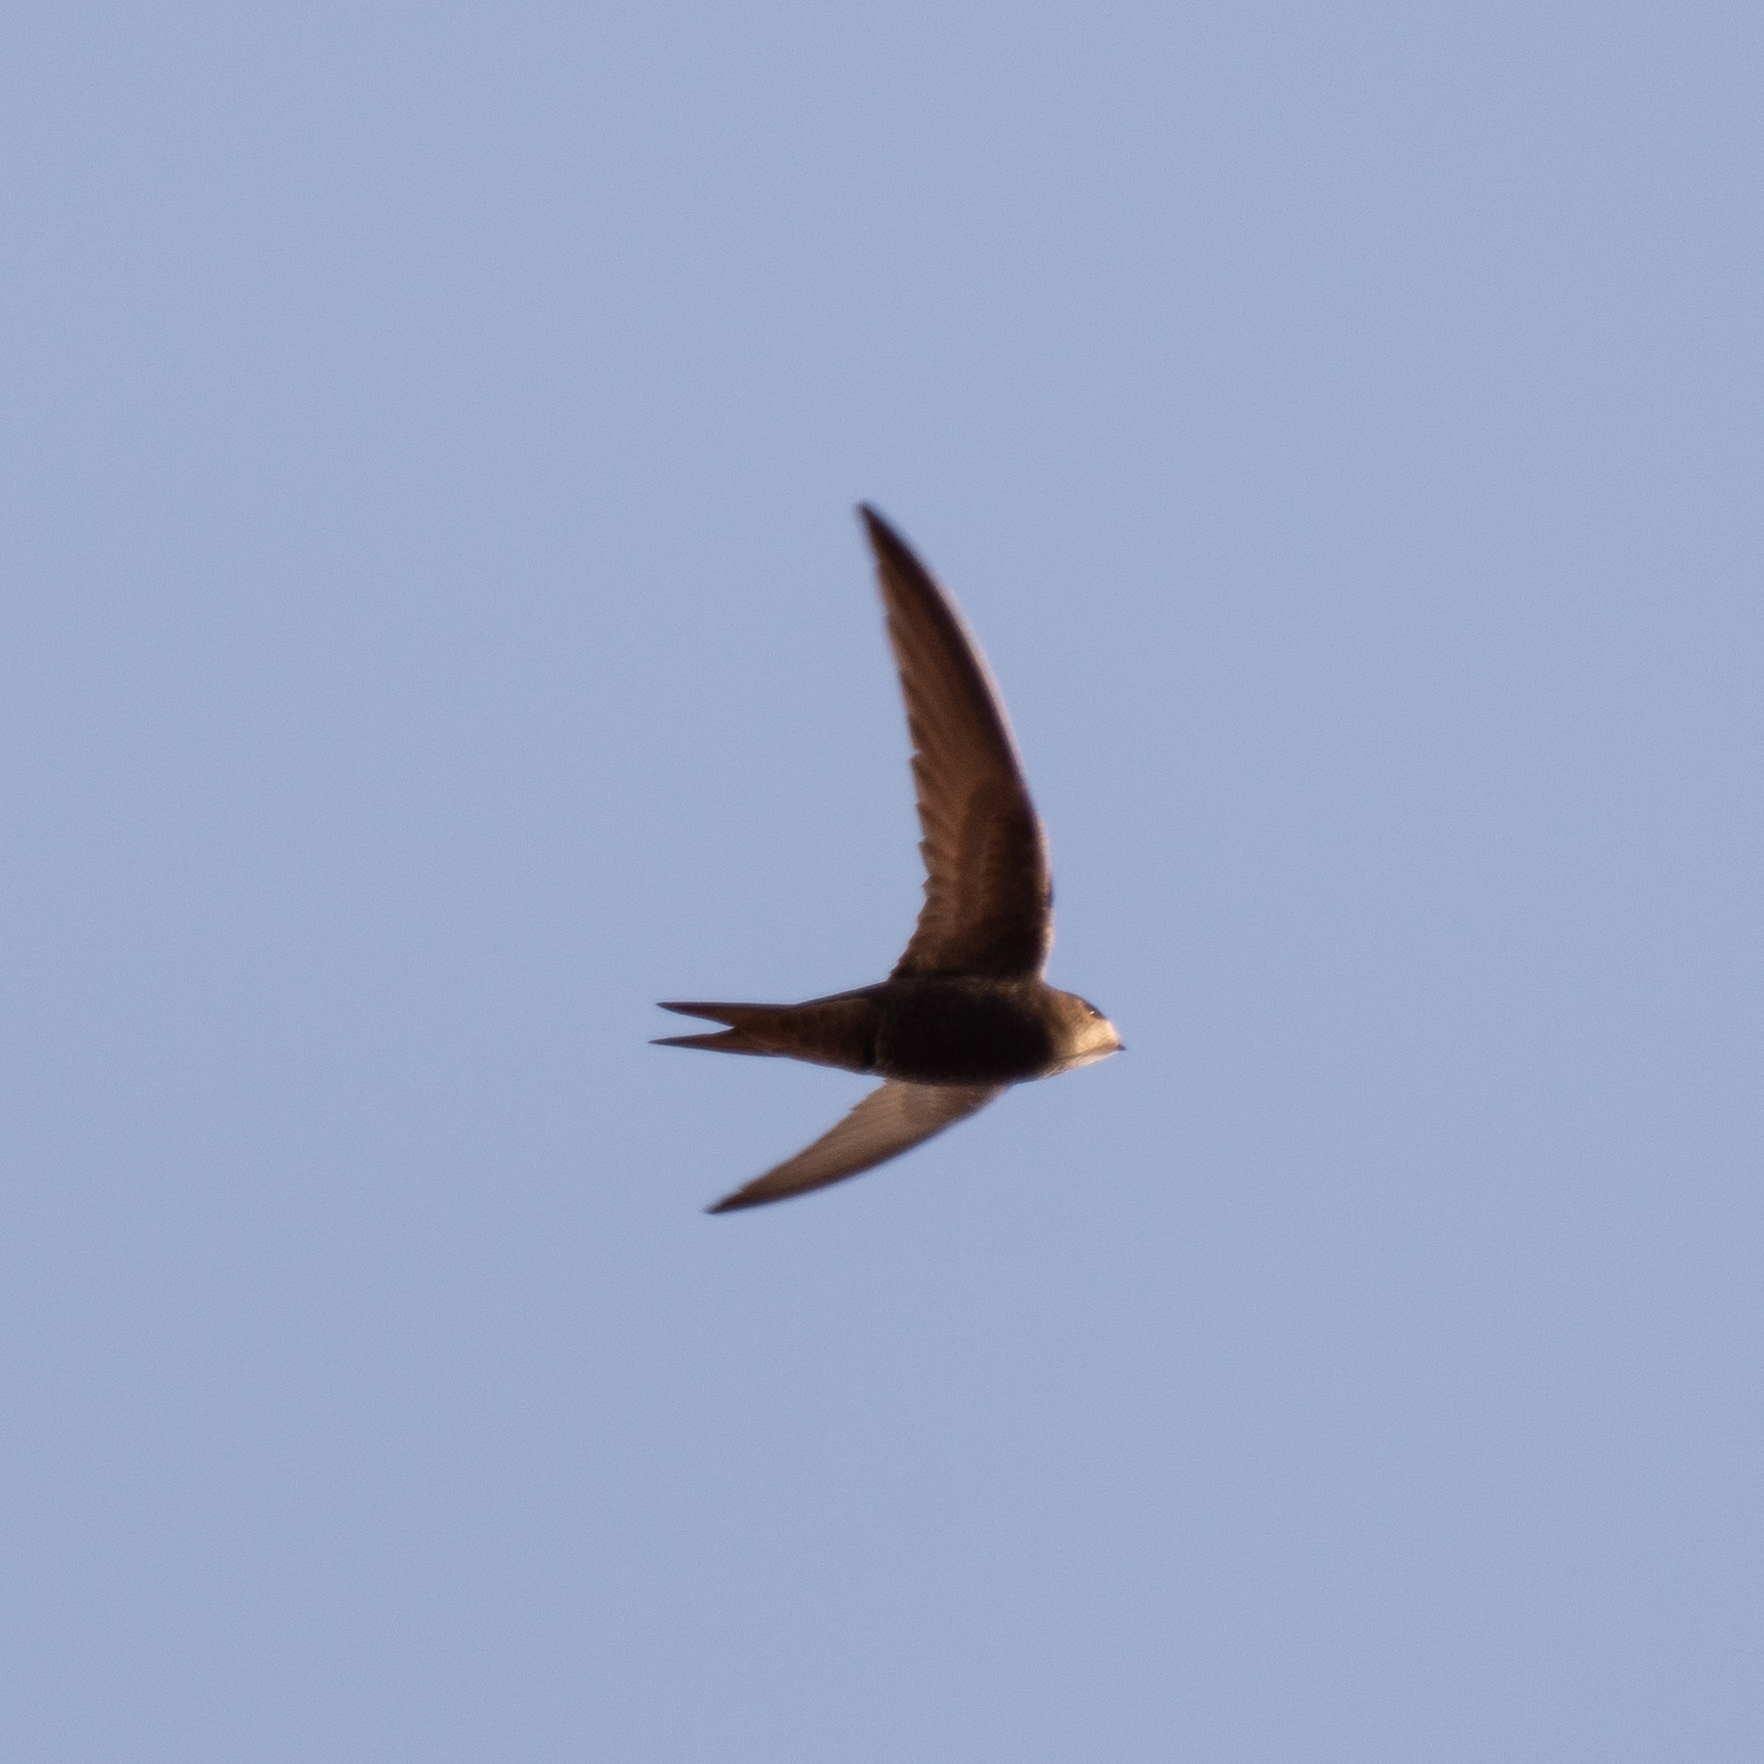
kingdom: Animalia
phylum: Chordata
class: Aves
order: Apodiformes
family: Apodidae
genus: Apus
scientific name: Apus apus
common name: Common swift
